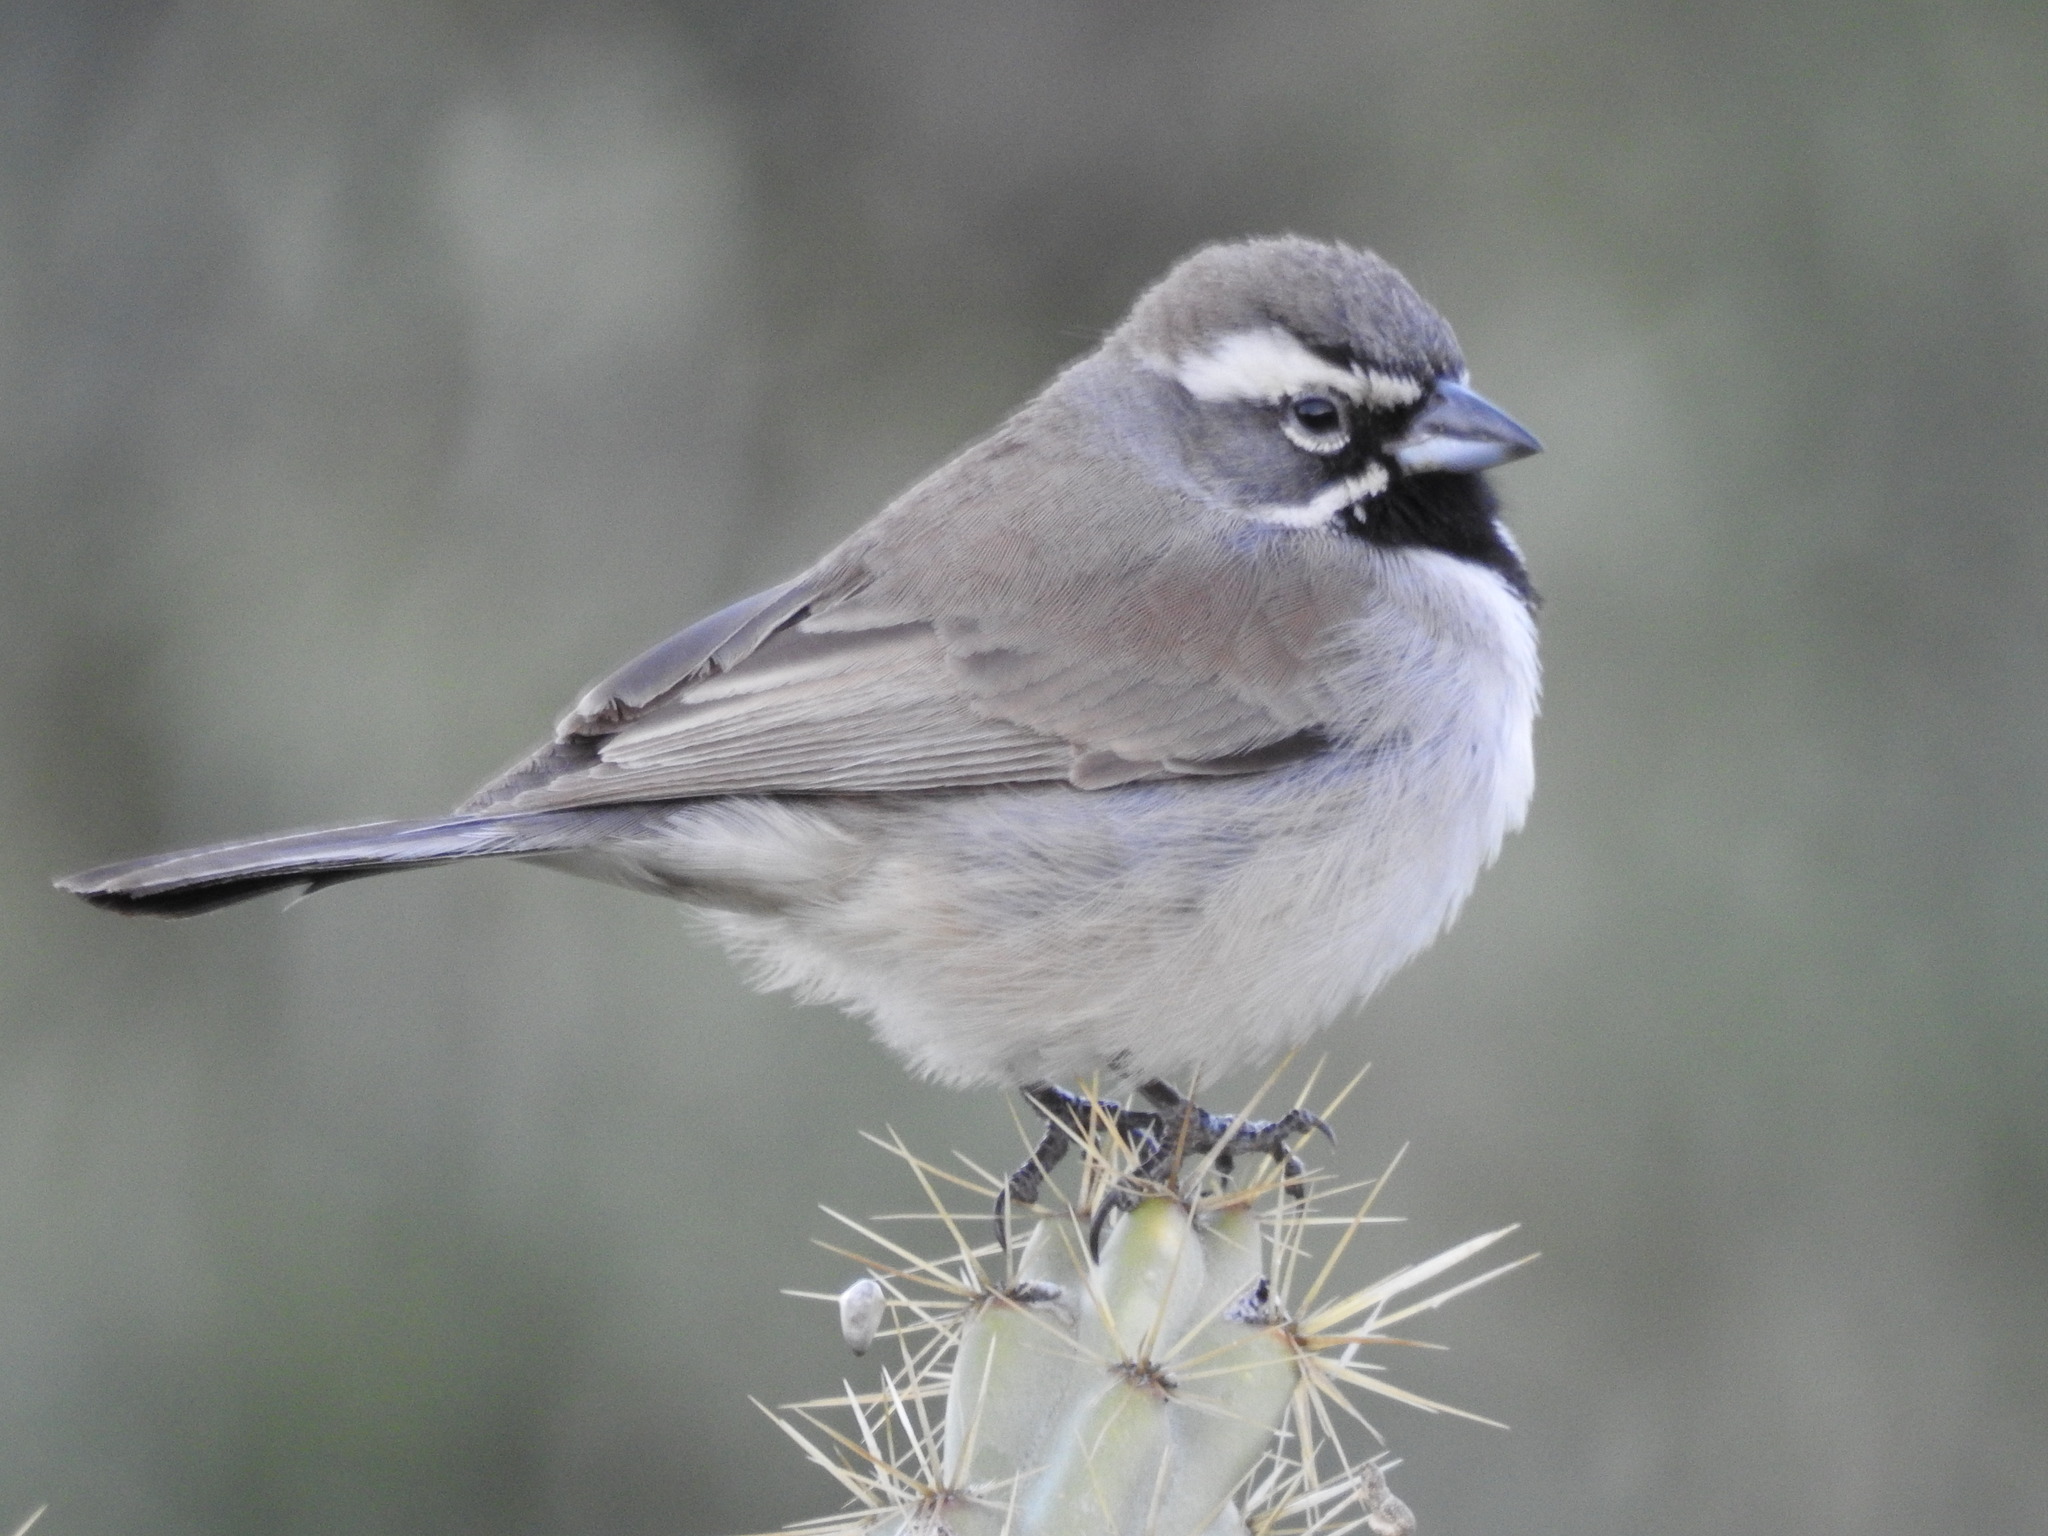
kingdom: Animalia
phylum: Chordata
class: Aves
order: Passeriformes
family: Passerellidae
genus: Amphispiza
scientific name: Amphispiza bilineata
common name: Black-throated sparrow
